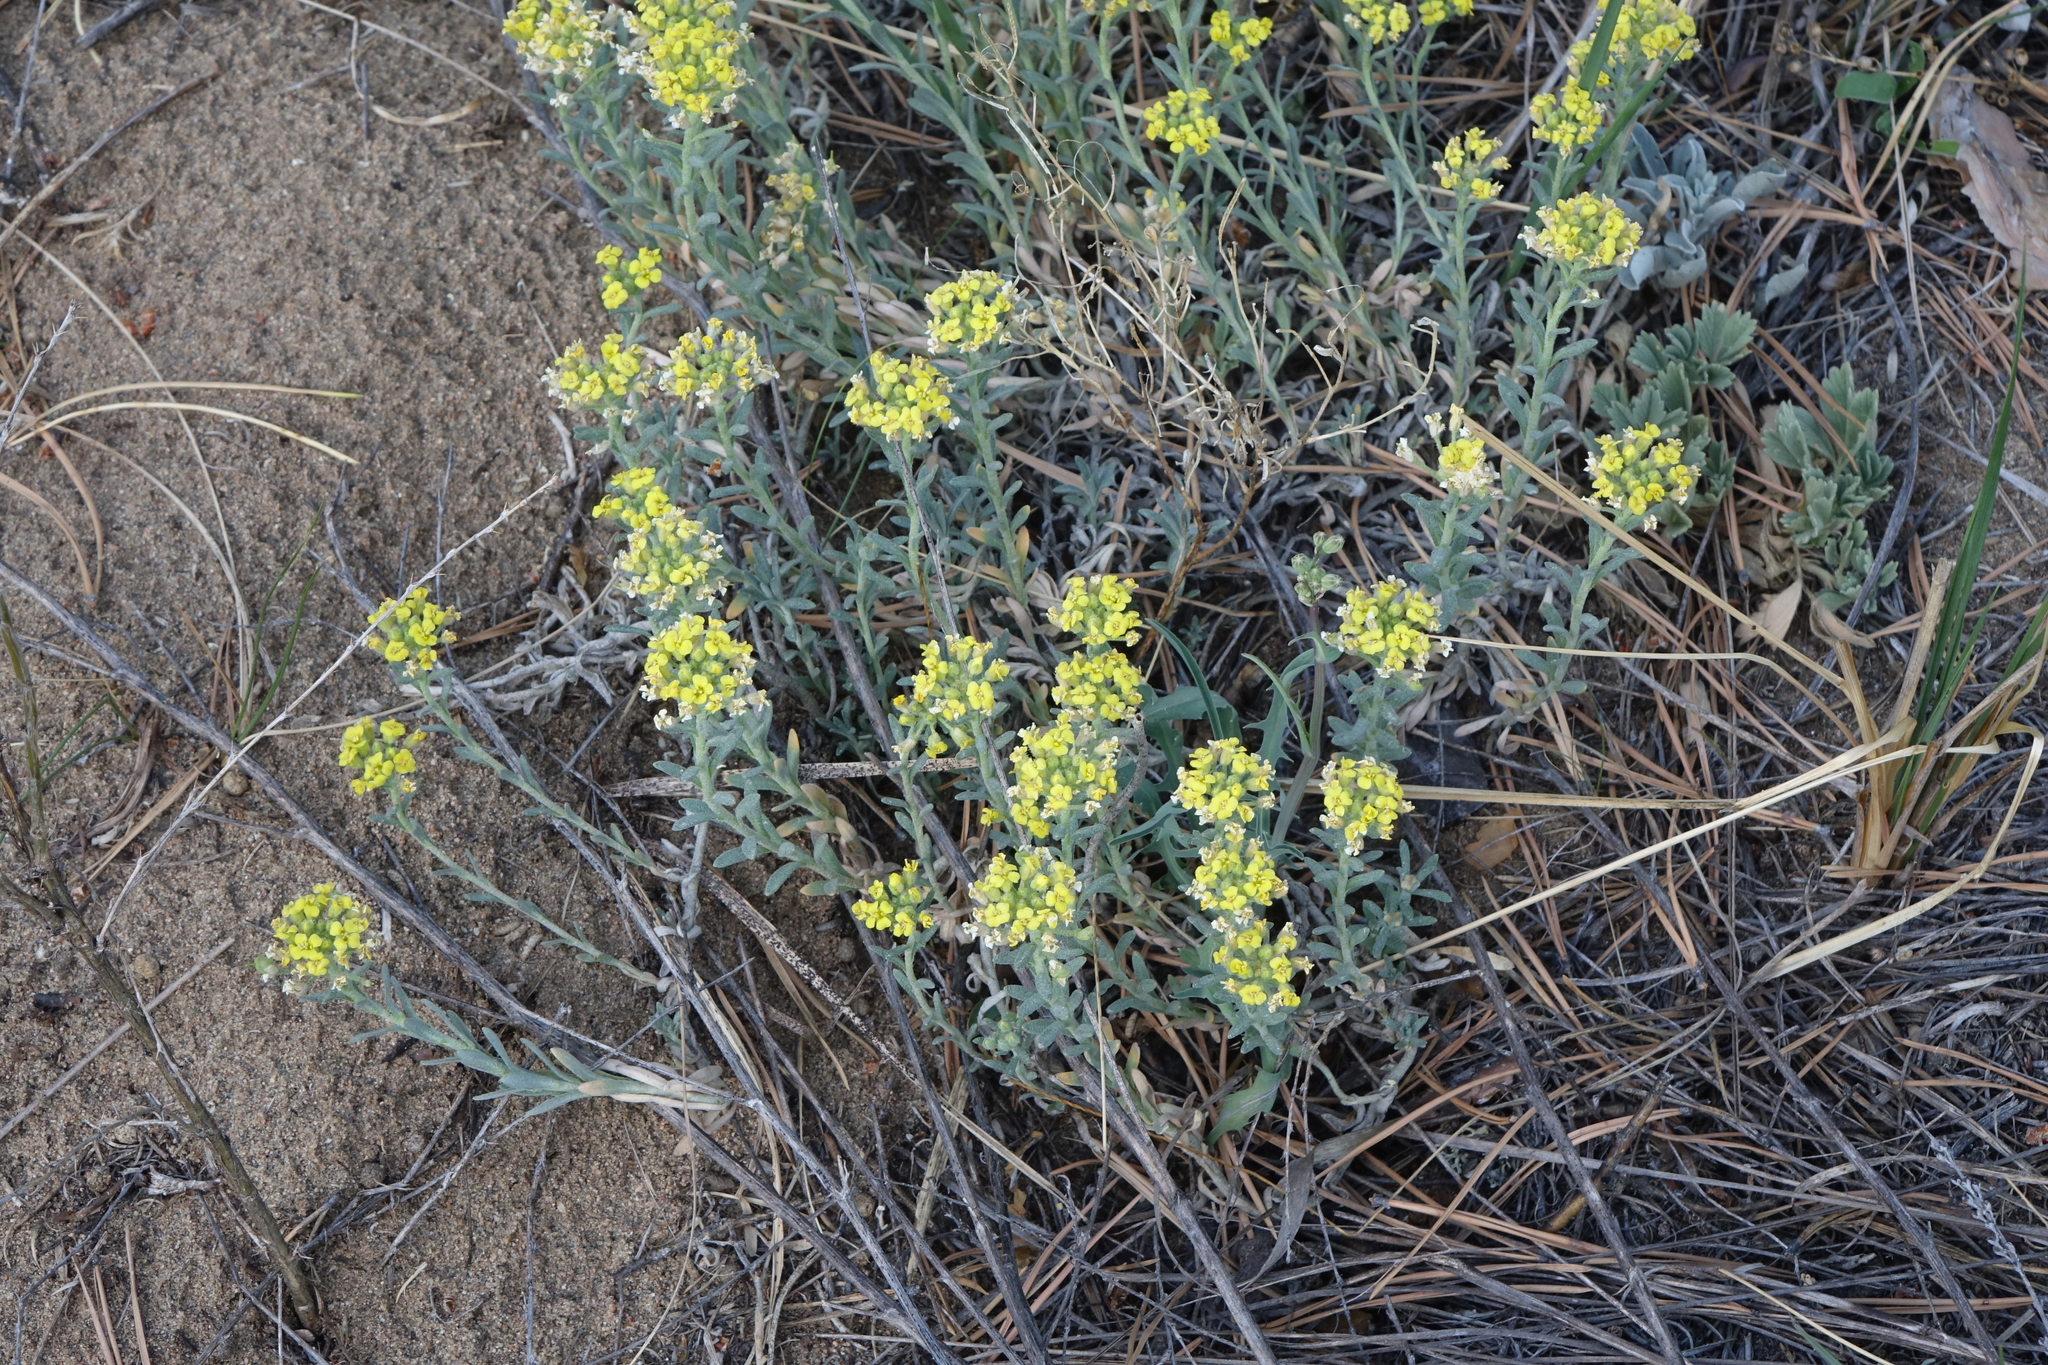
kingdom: Plantae
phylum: Tracheophyta
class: Magnoliopsida
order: Brassicales
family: Brassicaceae
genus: Alyssum
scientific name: Alyssum lenense
